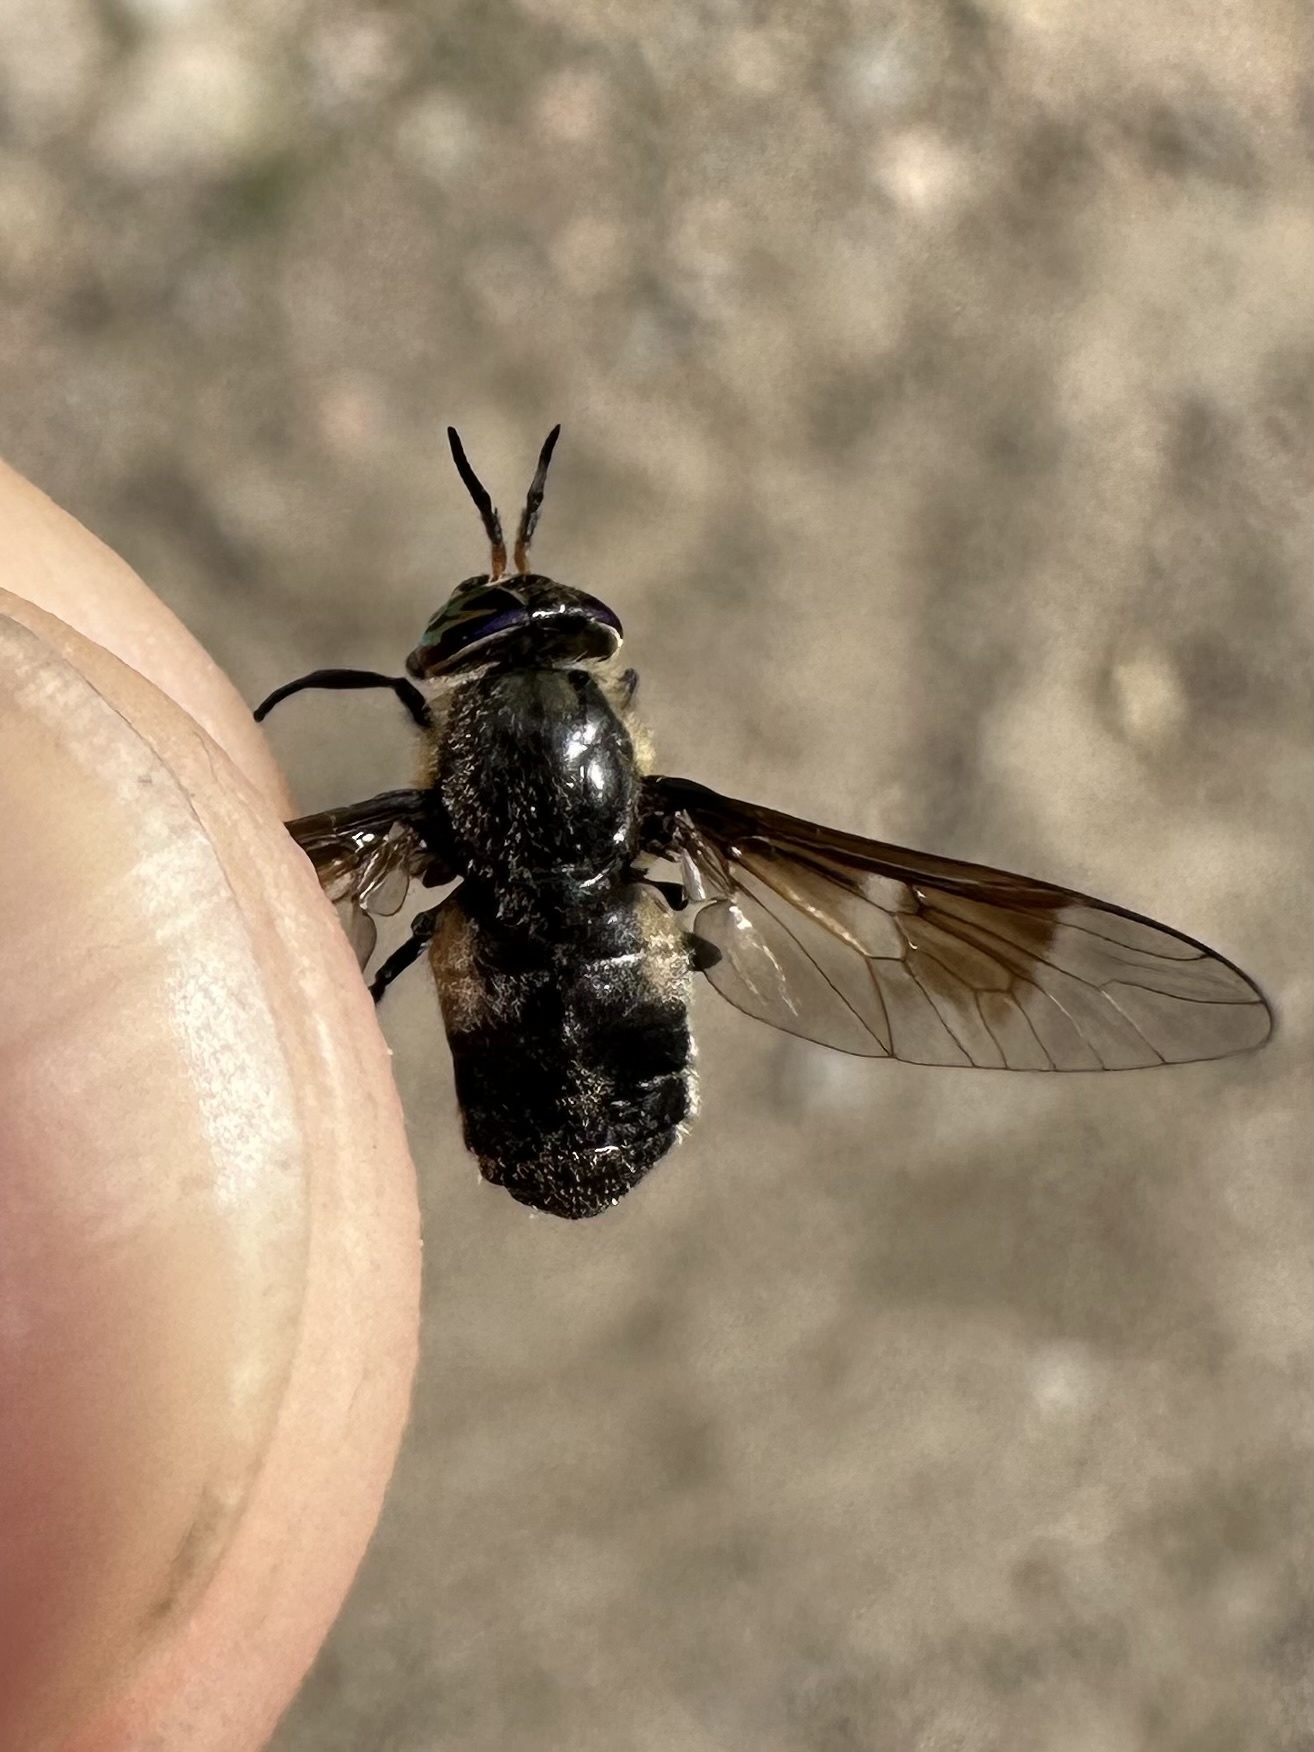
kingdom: Animalia
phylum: Arthropoda
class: Insecta
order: Diptera
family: Tabanidae
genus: Chrysops
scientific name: Chrysops cuclux
